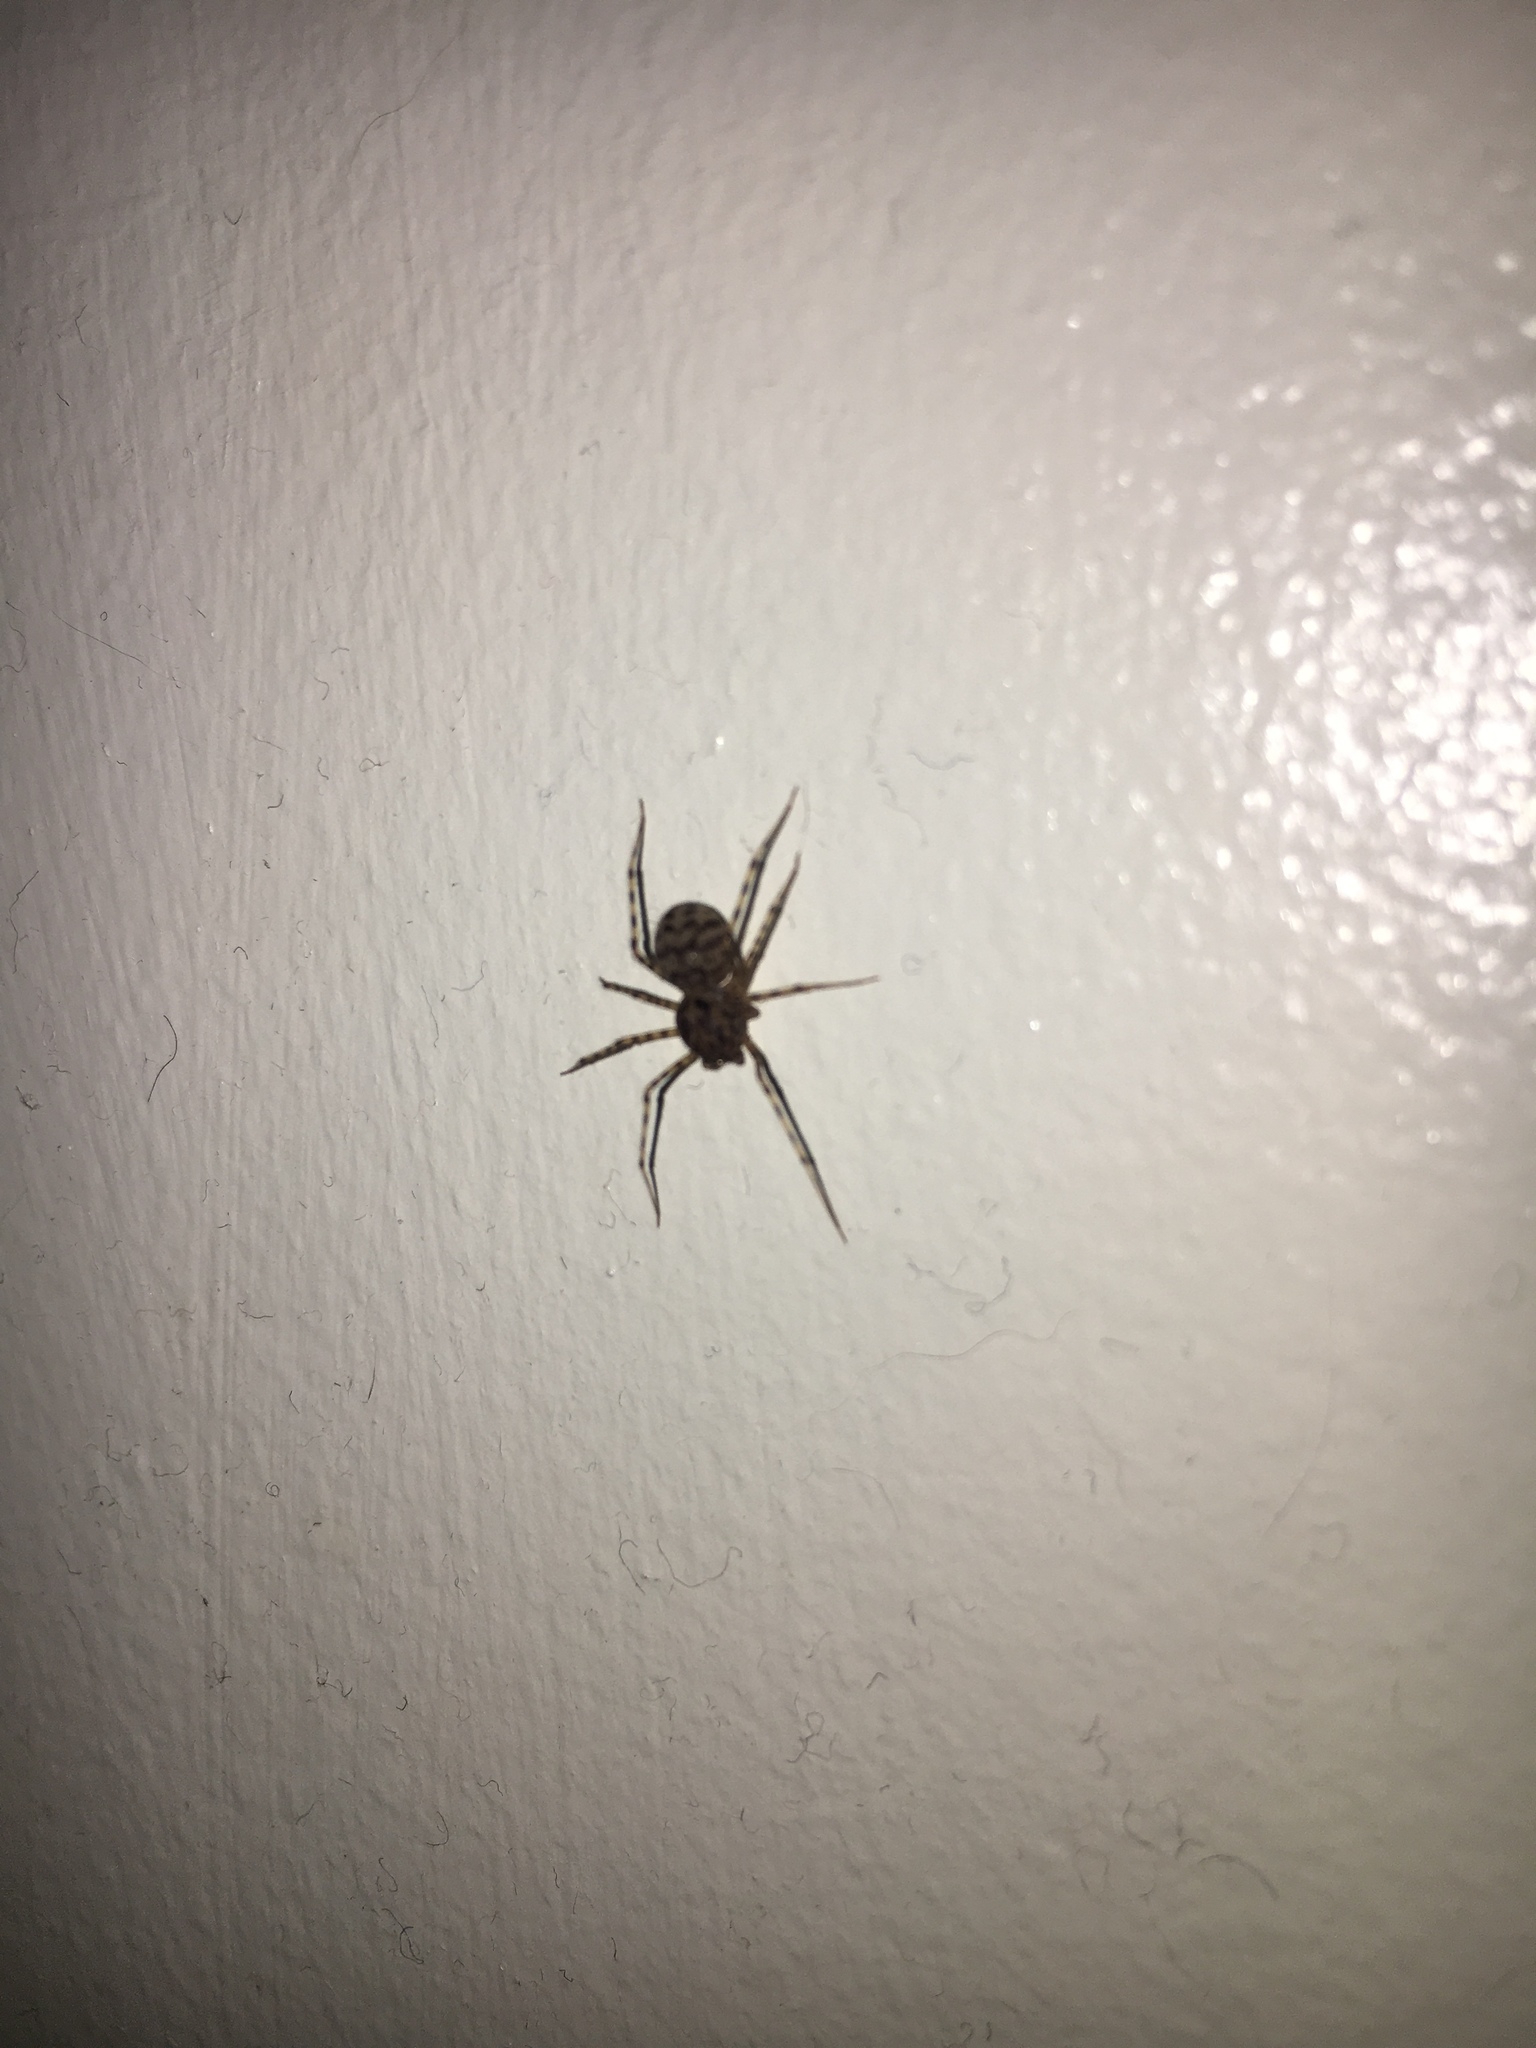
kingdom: Animalia
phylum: Arthropoda
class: Arachnida
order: Araneae
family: Scytodidae
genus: Scytodes
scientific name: Scytodes thoracica
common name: Spitting spider
